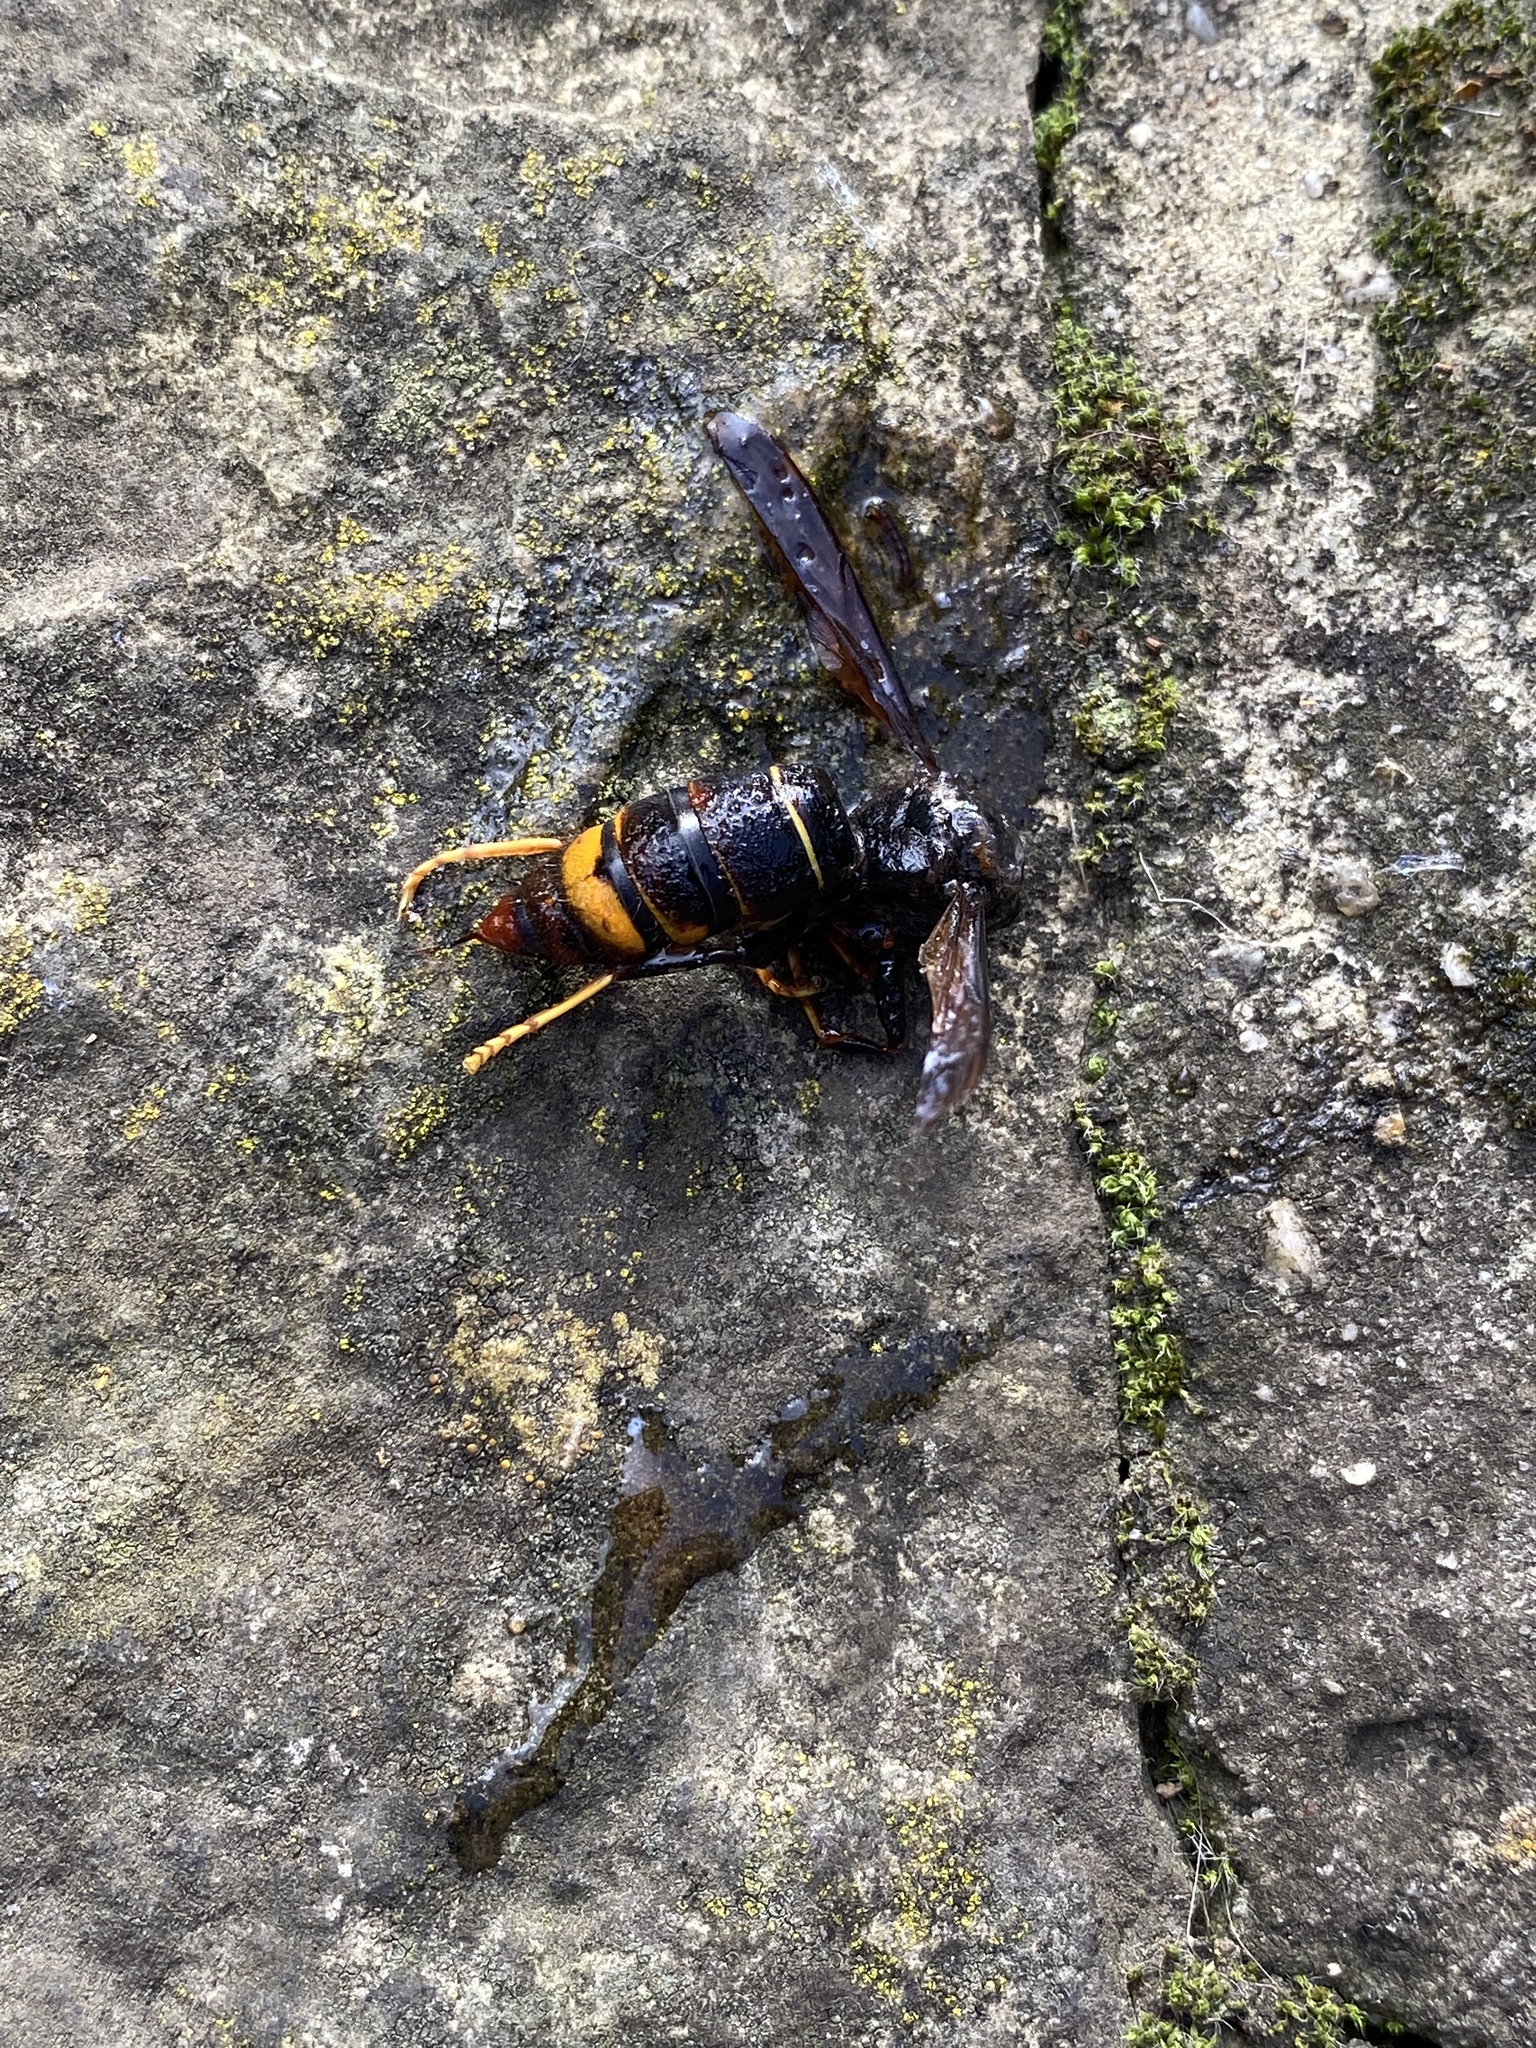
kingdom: Animalia
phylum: Arthropoda
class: Insecta
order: Hymenoptera
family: Vespidae
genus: Vespa
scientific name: Vespa velutina
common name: Asian hornet
